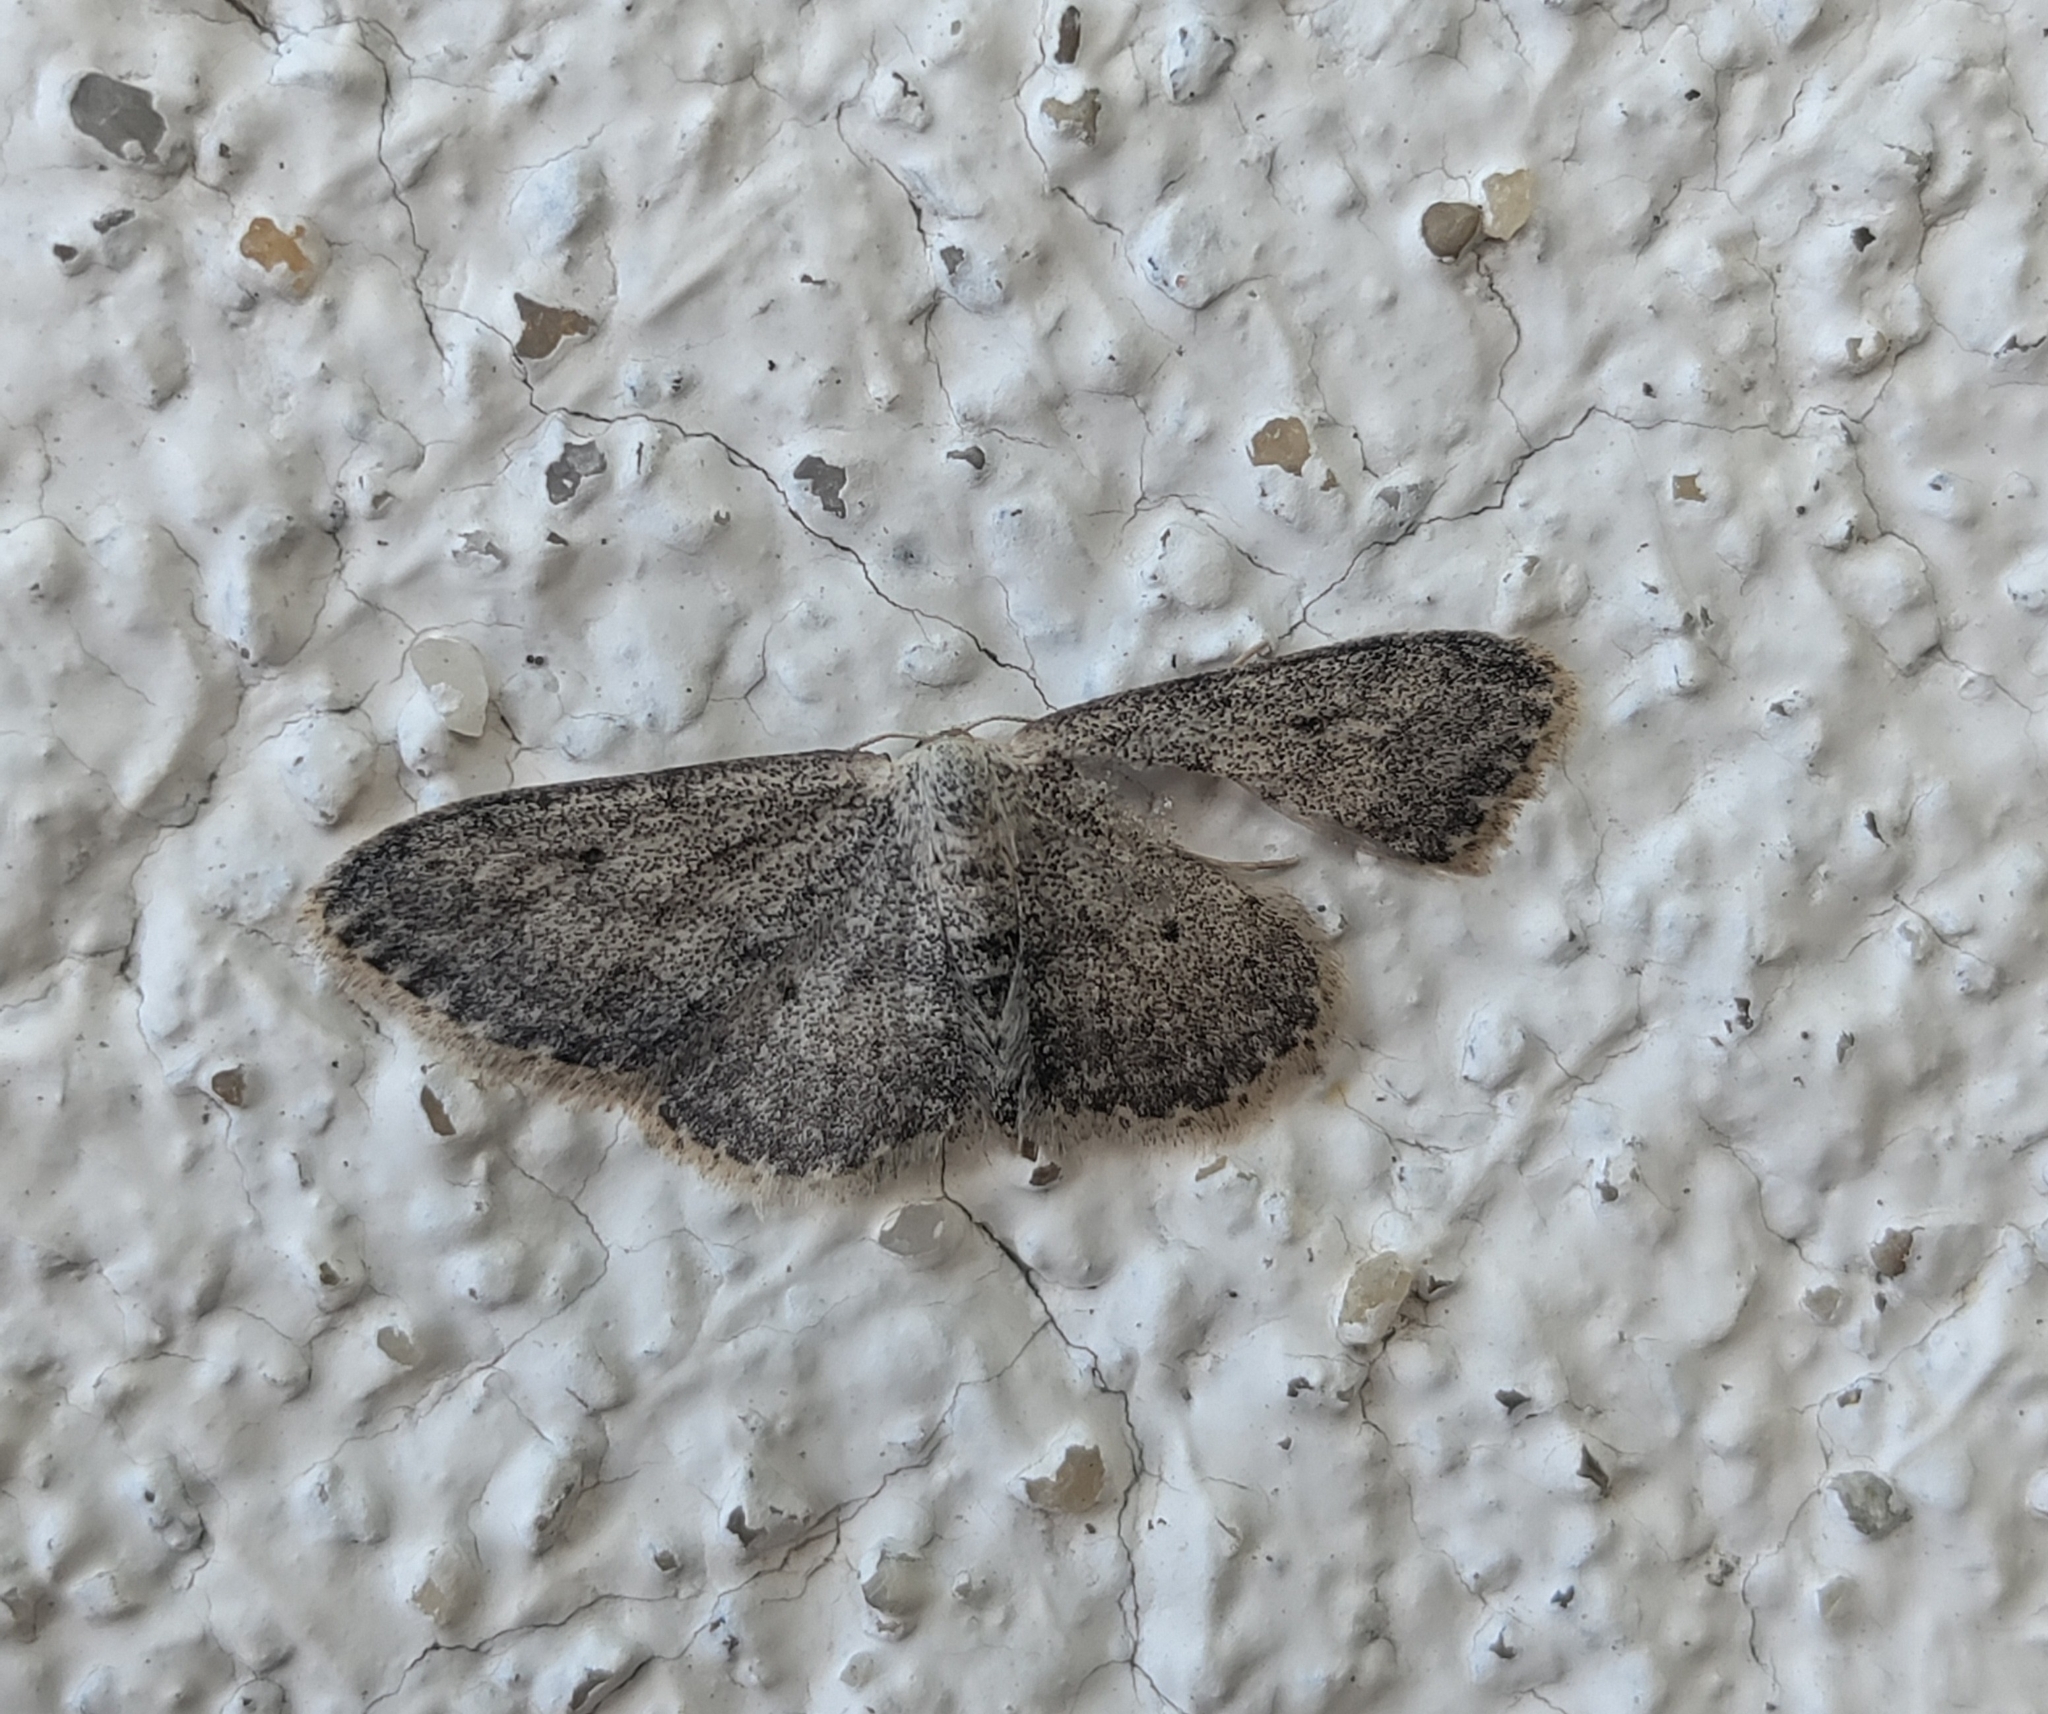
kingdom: Animalia
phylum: Arthropoda
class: Insecta
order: Lepidoptera
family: Geometridae
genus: Idaea
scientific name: Idaea seriata
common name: Small dusty wave
